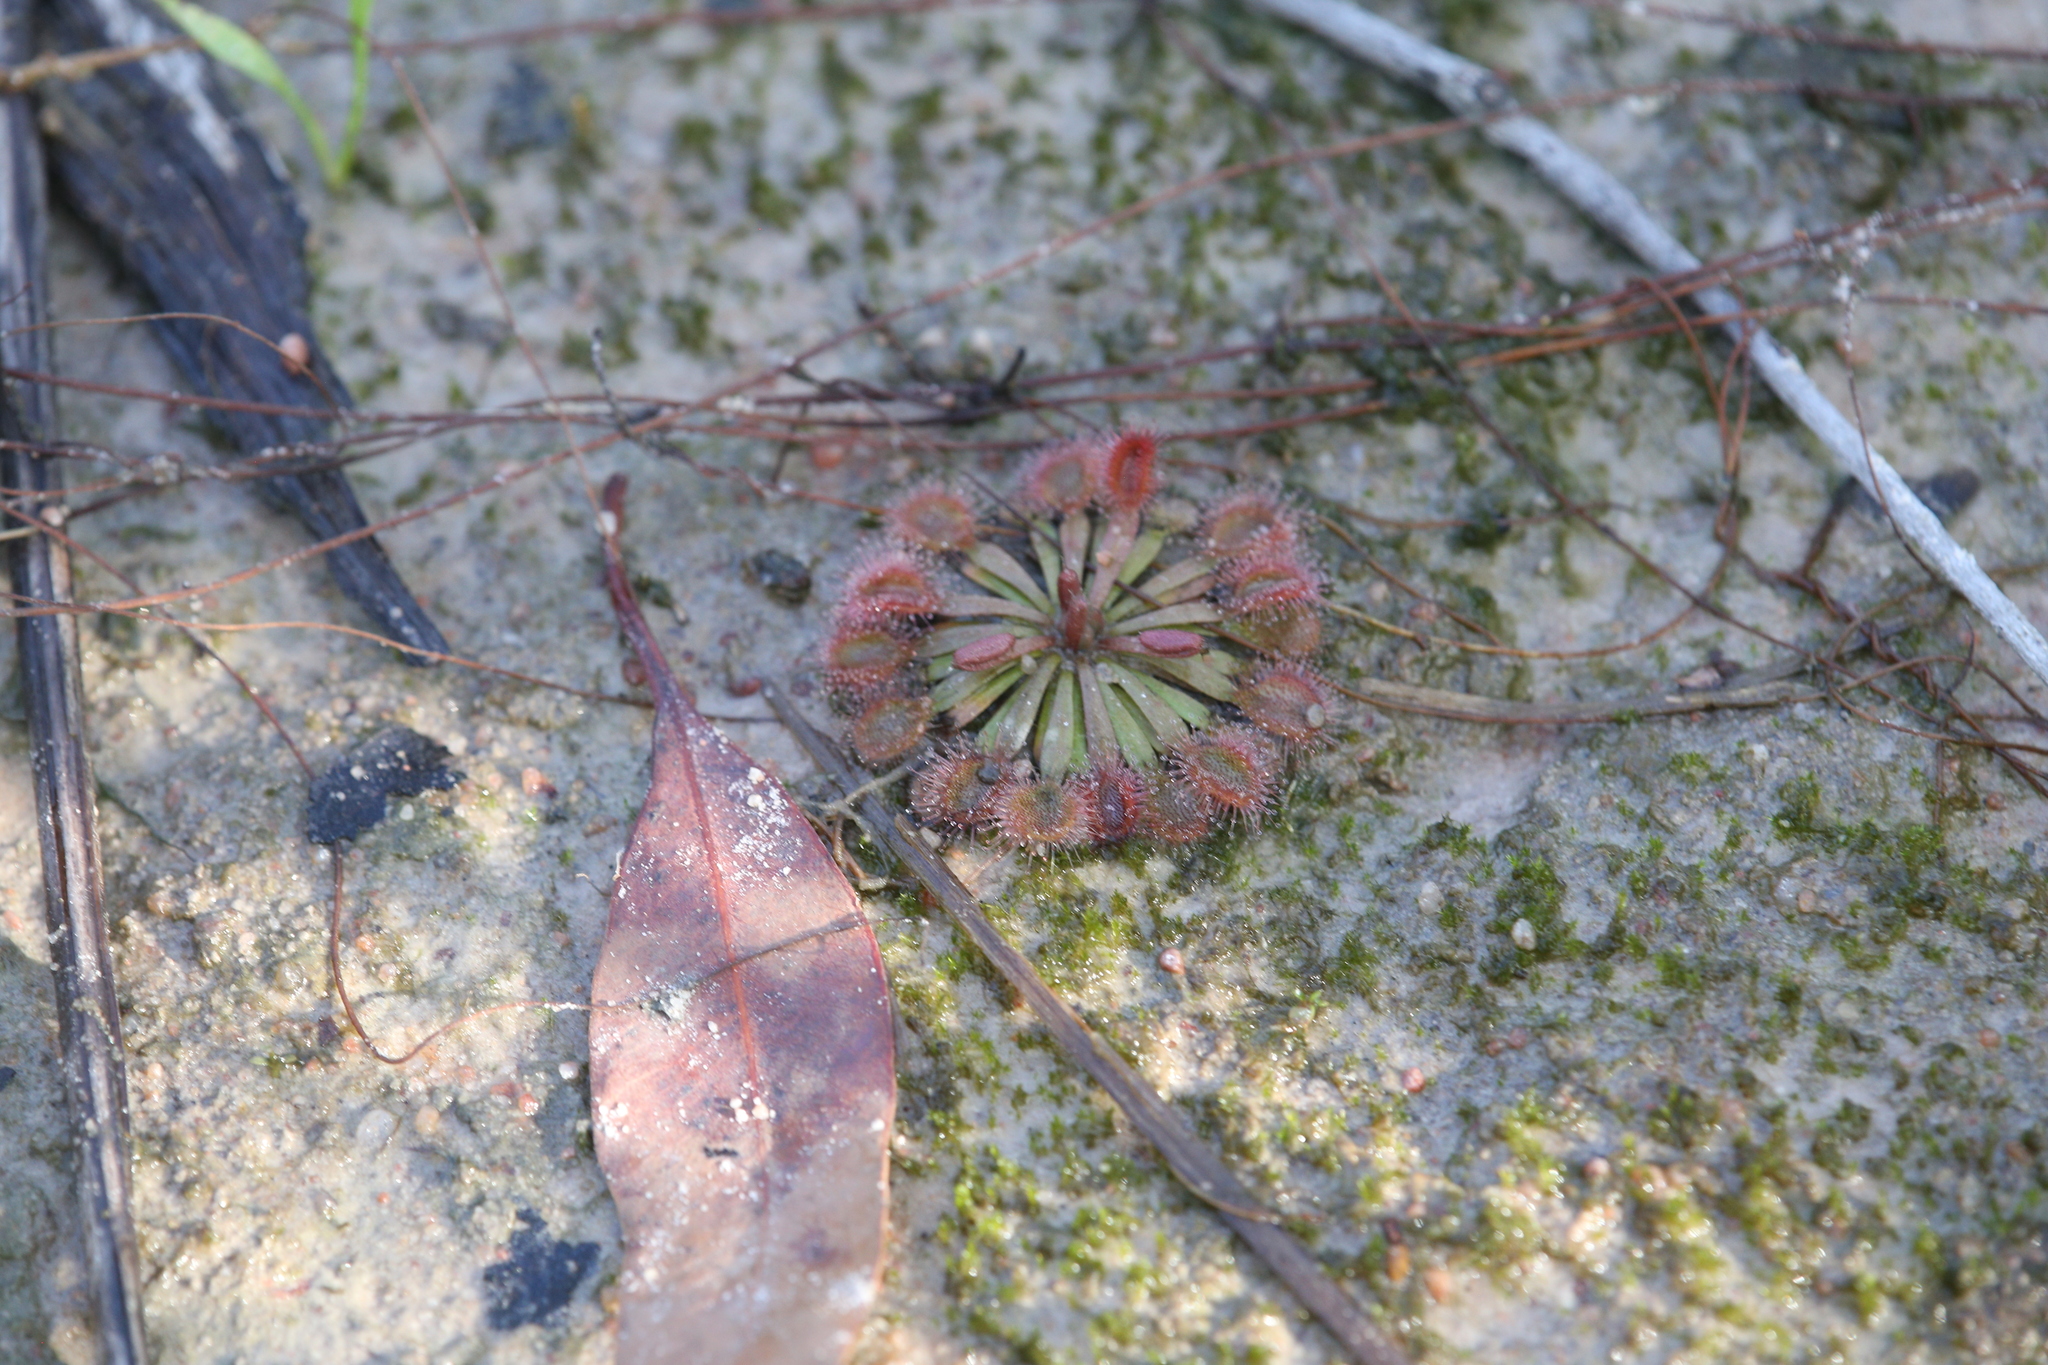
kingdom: Plantae
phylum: Tracheophyta
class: Magnoliopsida
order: Caryophyllales
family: Droseraceae
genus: Drosera
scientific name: Drosera brevicornis
